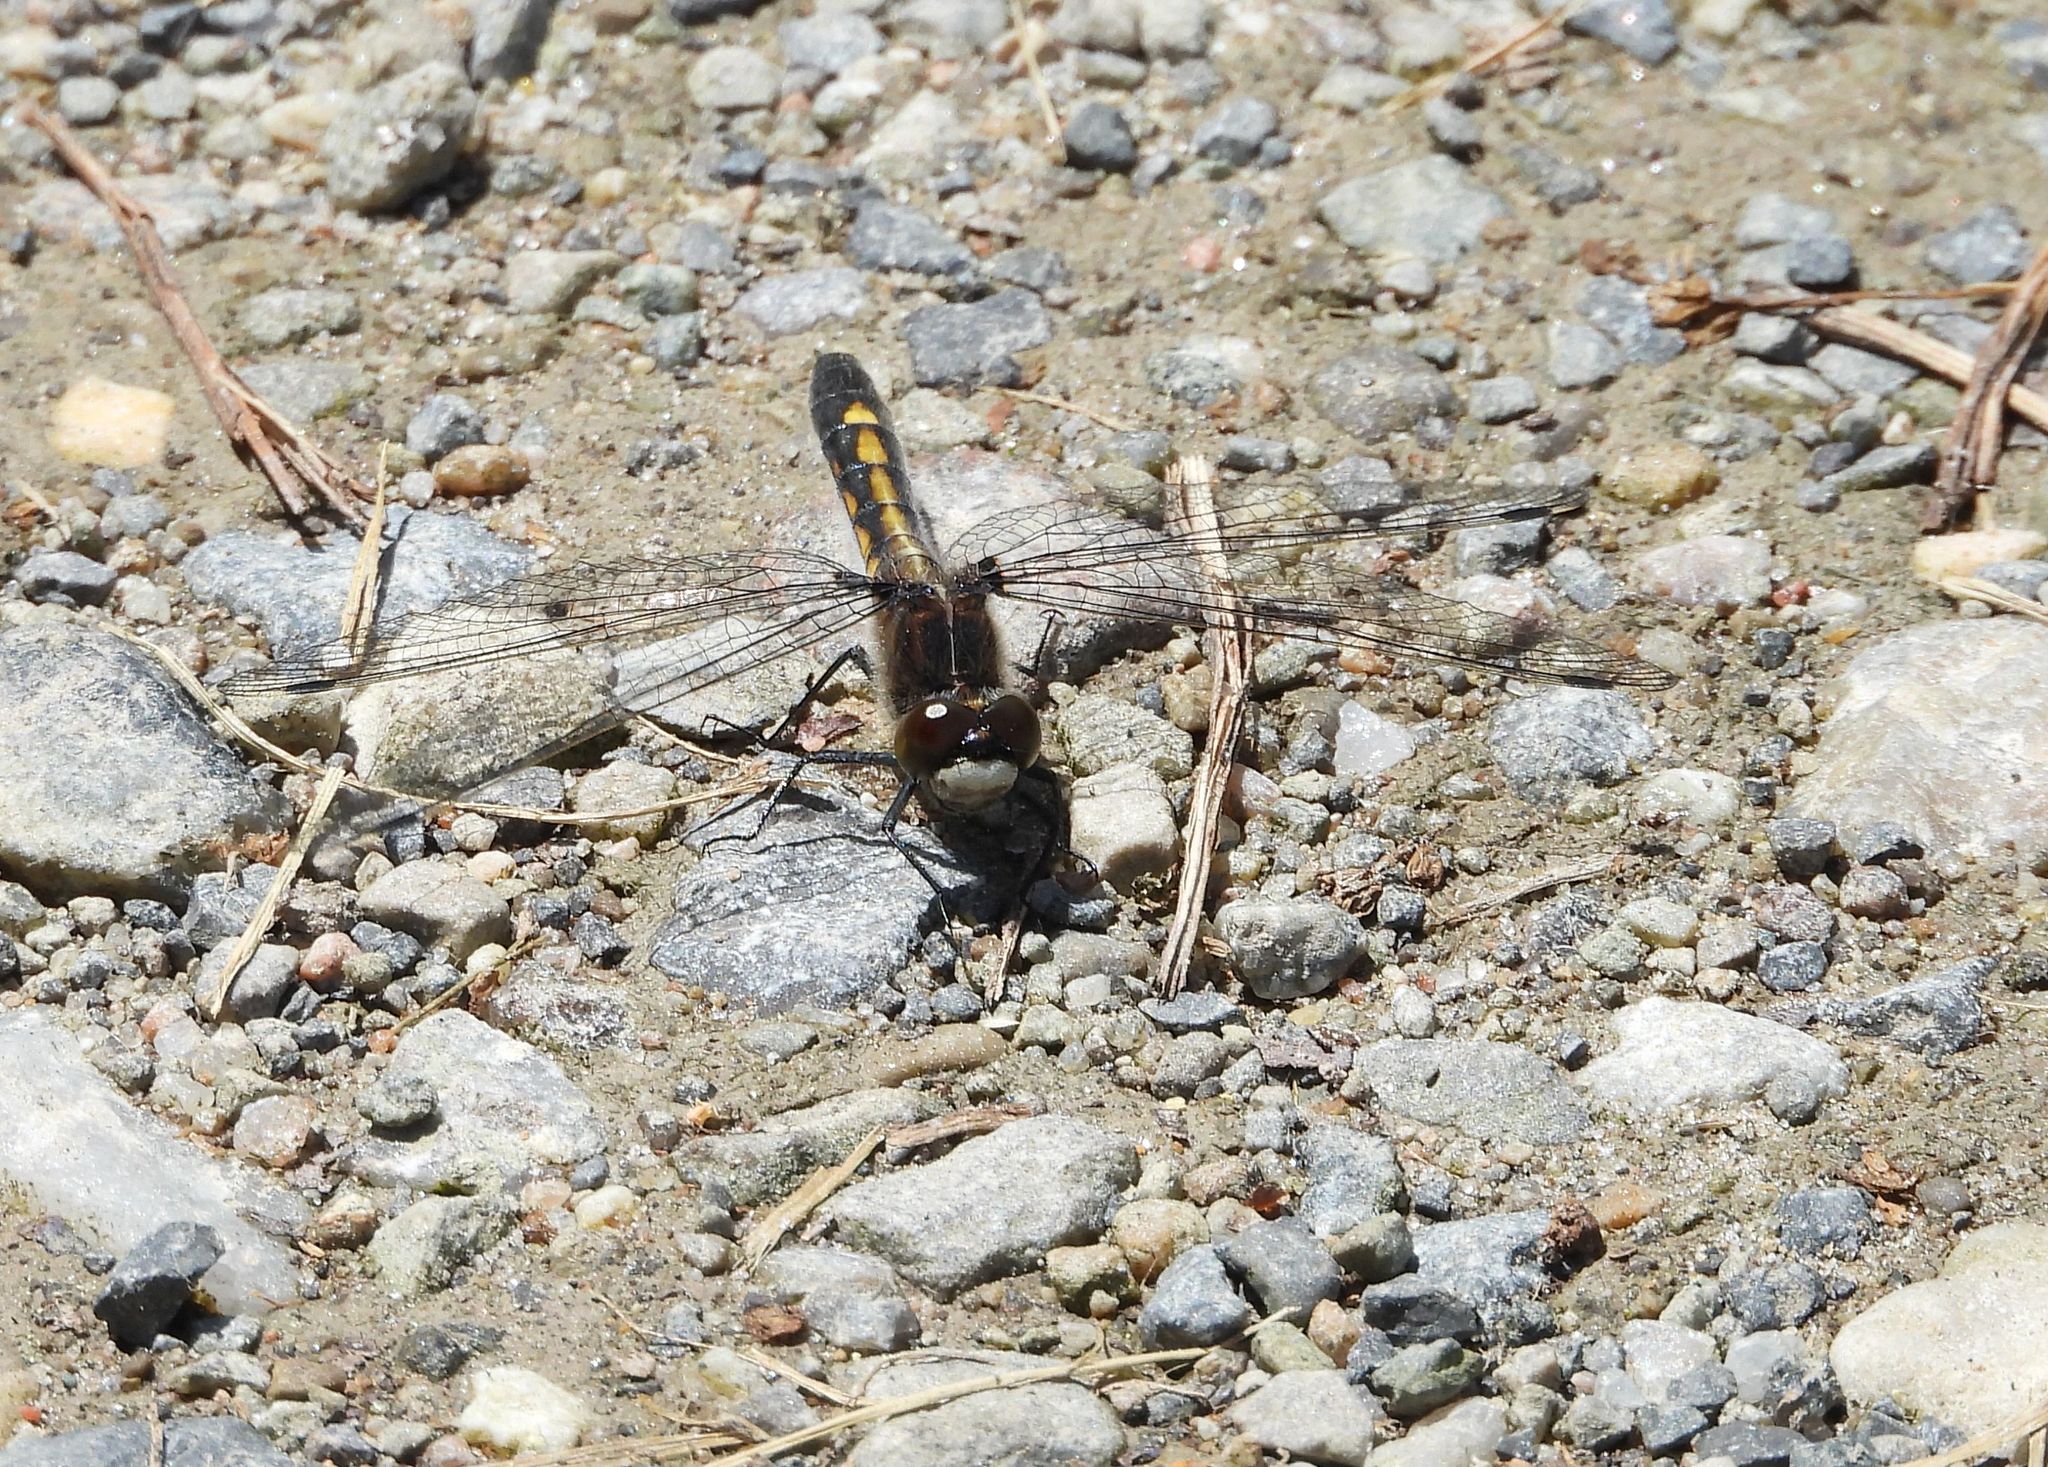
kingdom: Animalia
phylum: Arthropoda
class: Insecta
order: Odonata
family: Libellulidae
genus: Leucorrhinia
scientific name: Leucorrhinia intacta
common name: Dot-tailed whiteface
